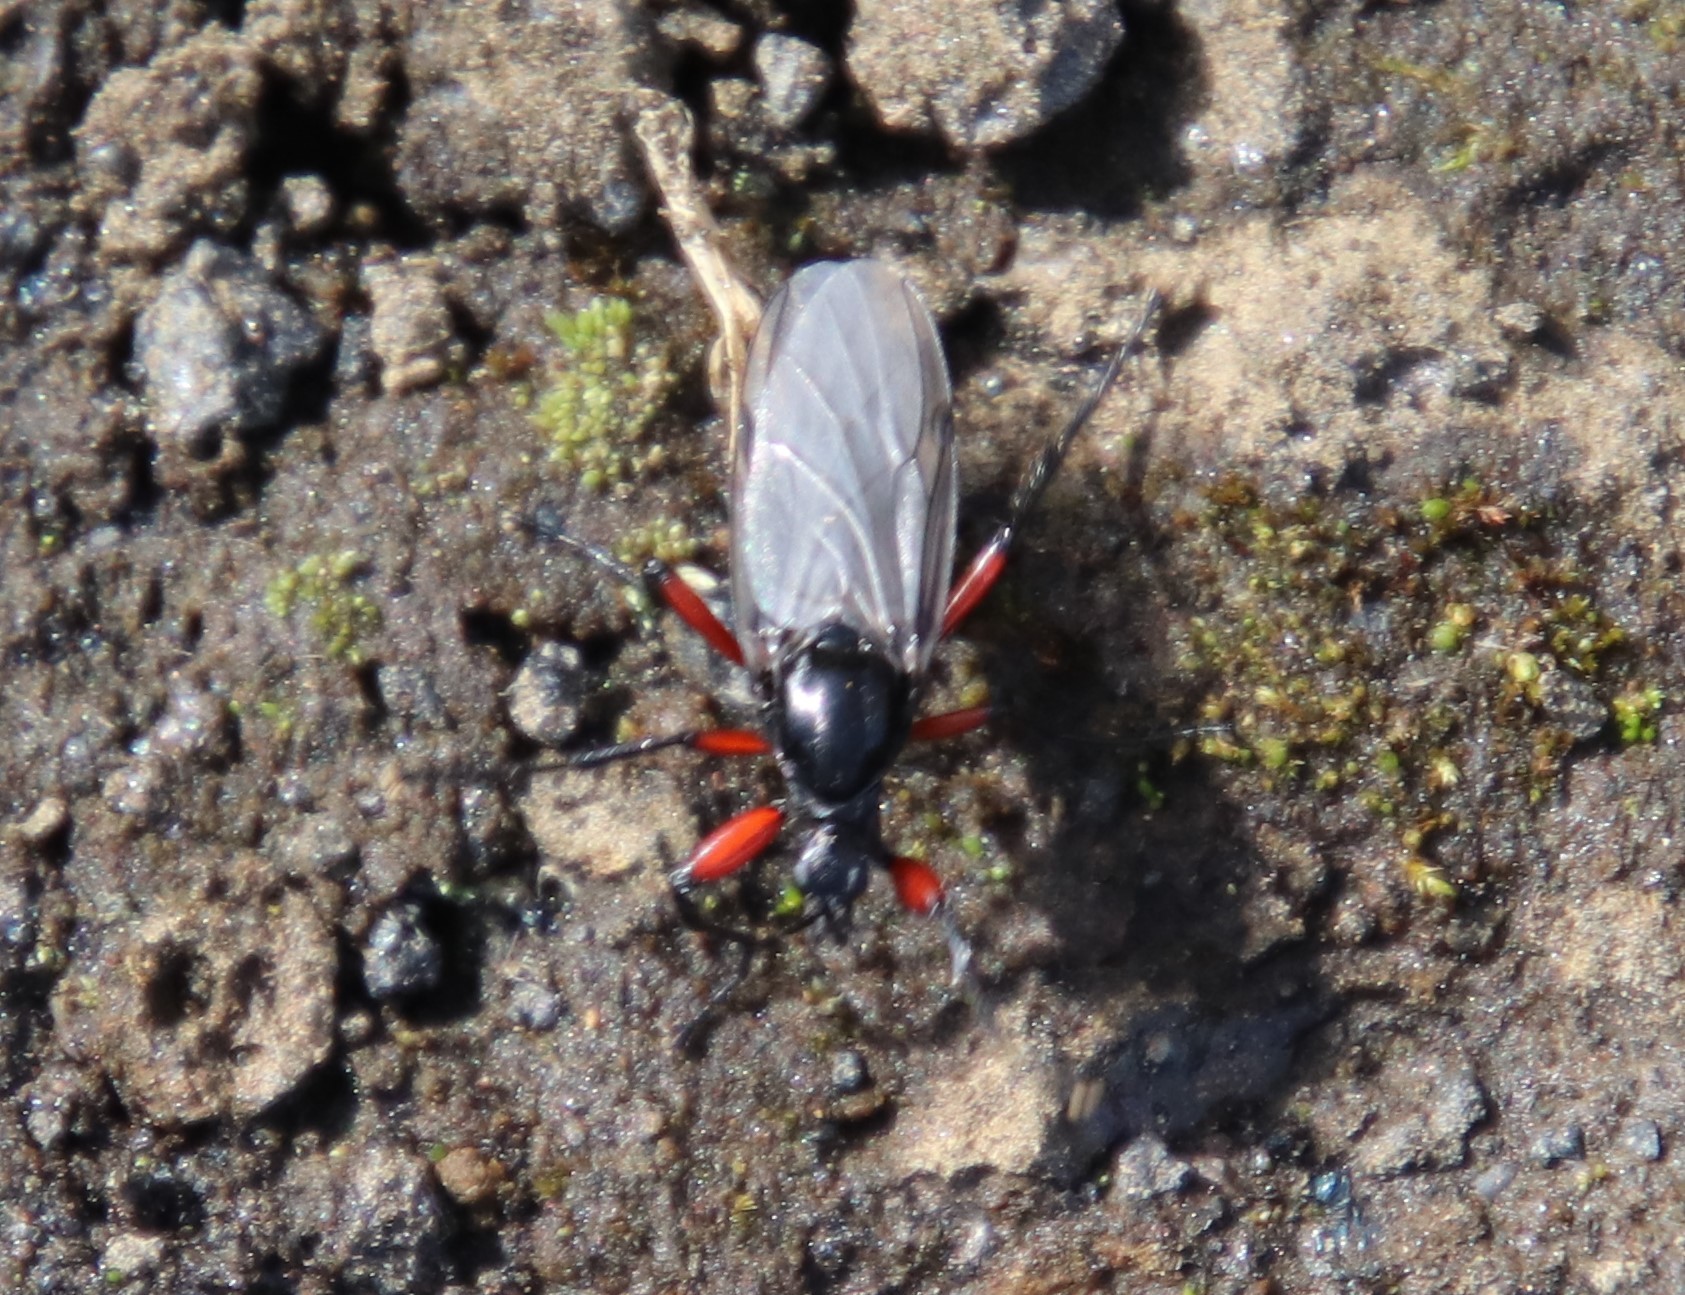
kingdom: Animalia
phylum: Arthropoda
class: Insecta
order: Diptera
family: Bibionidae
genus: Bibio
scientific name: Bibio pomonae
